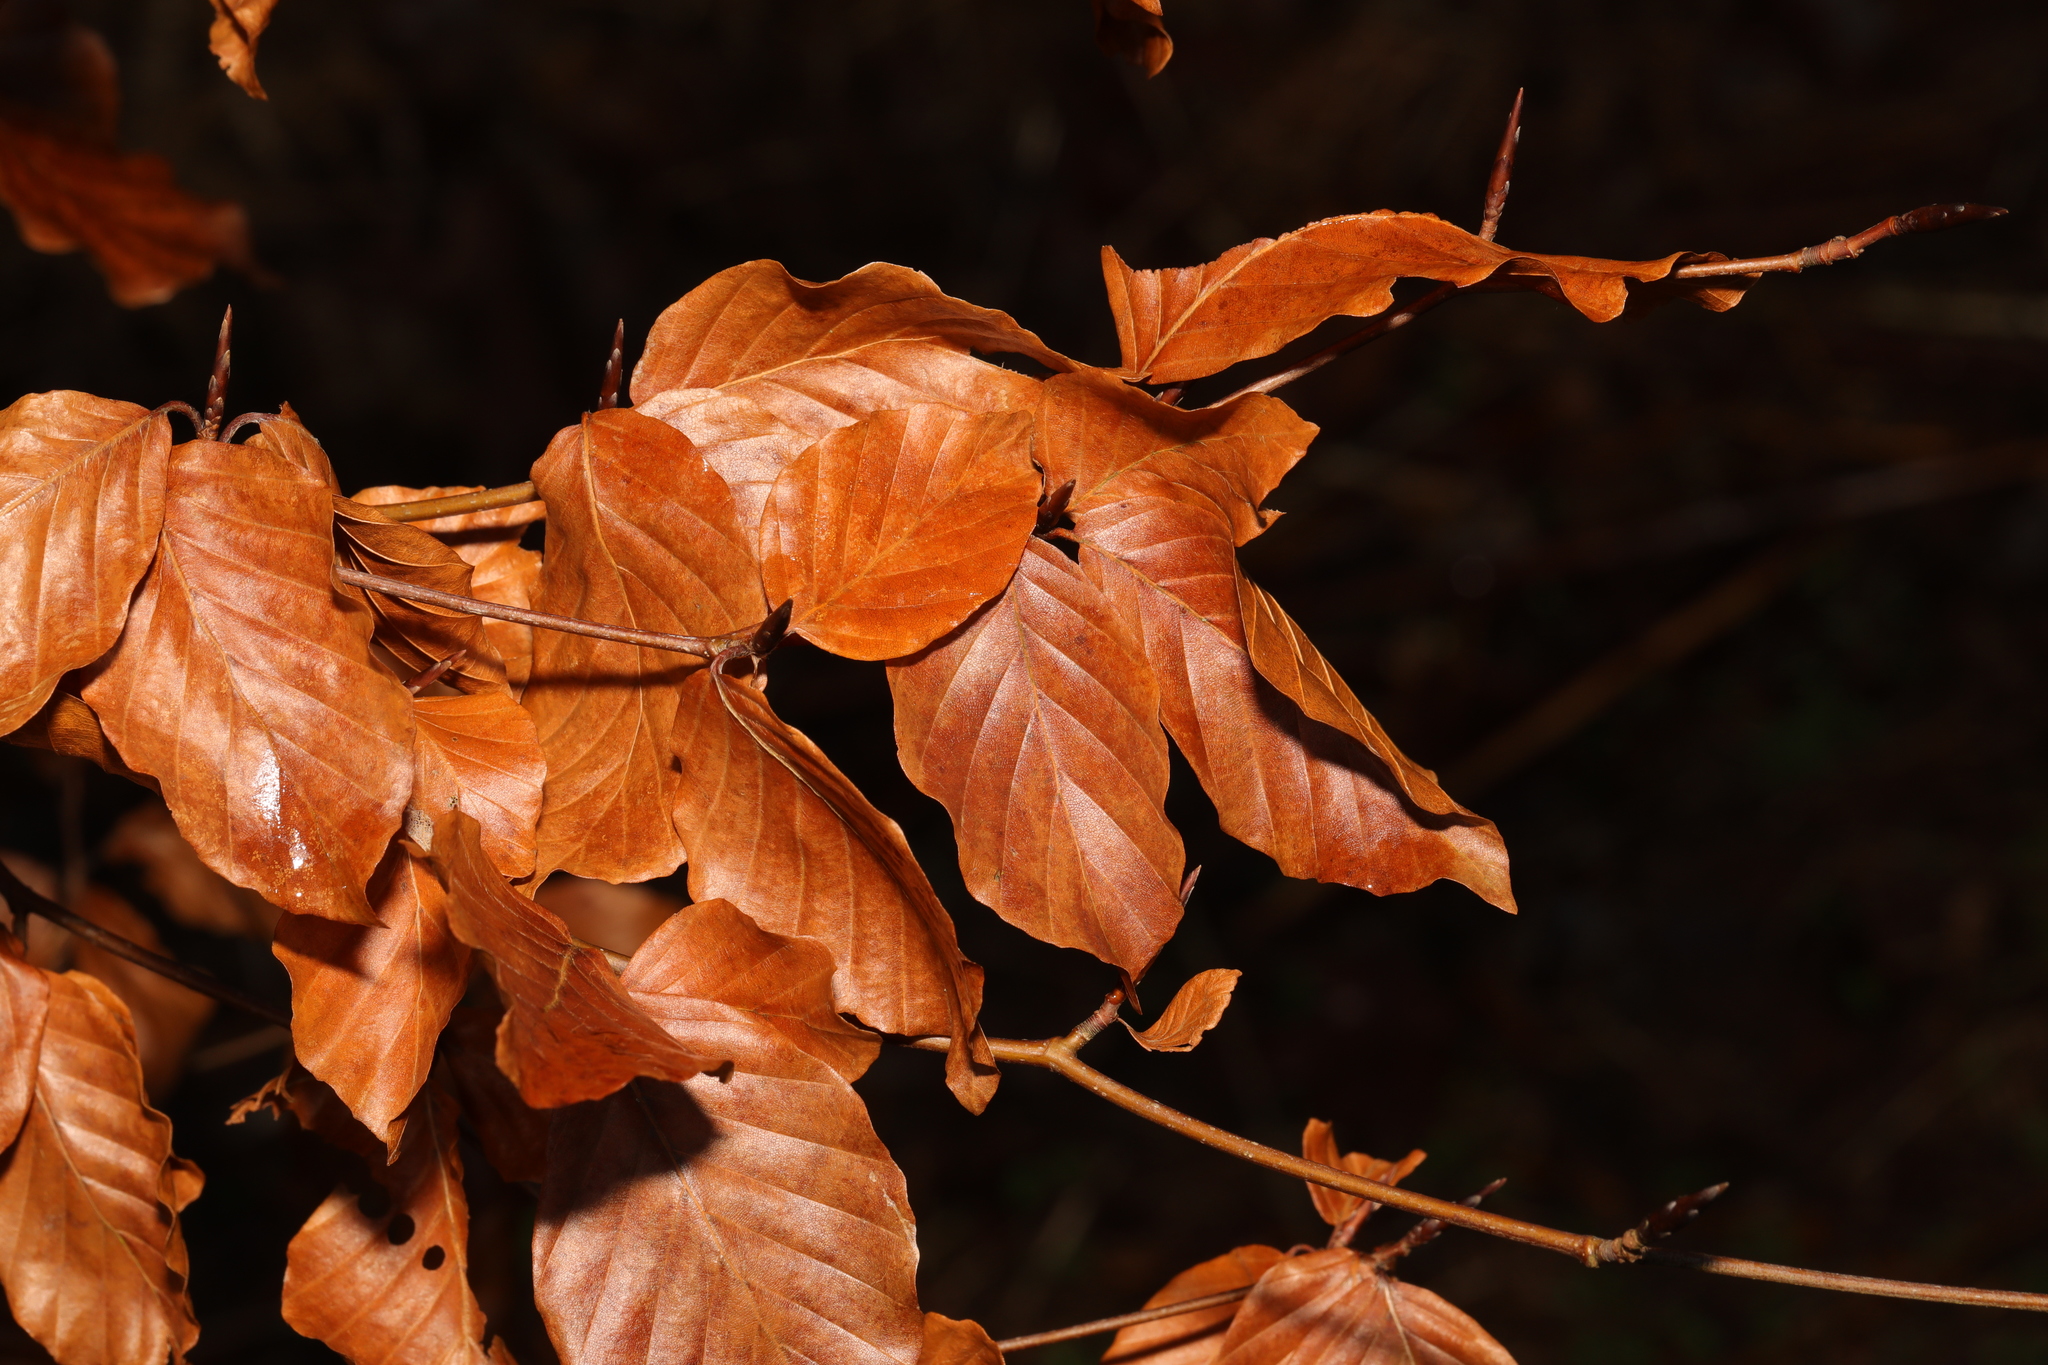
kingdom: Plantae
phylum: Tracheophyta
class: Magnoliopsida
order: Fagales
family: Fagaceae
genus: Fagus
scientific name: Fagus sylvatica
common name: Beech
